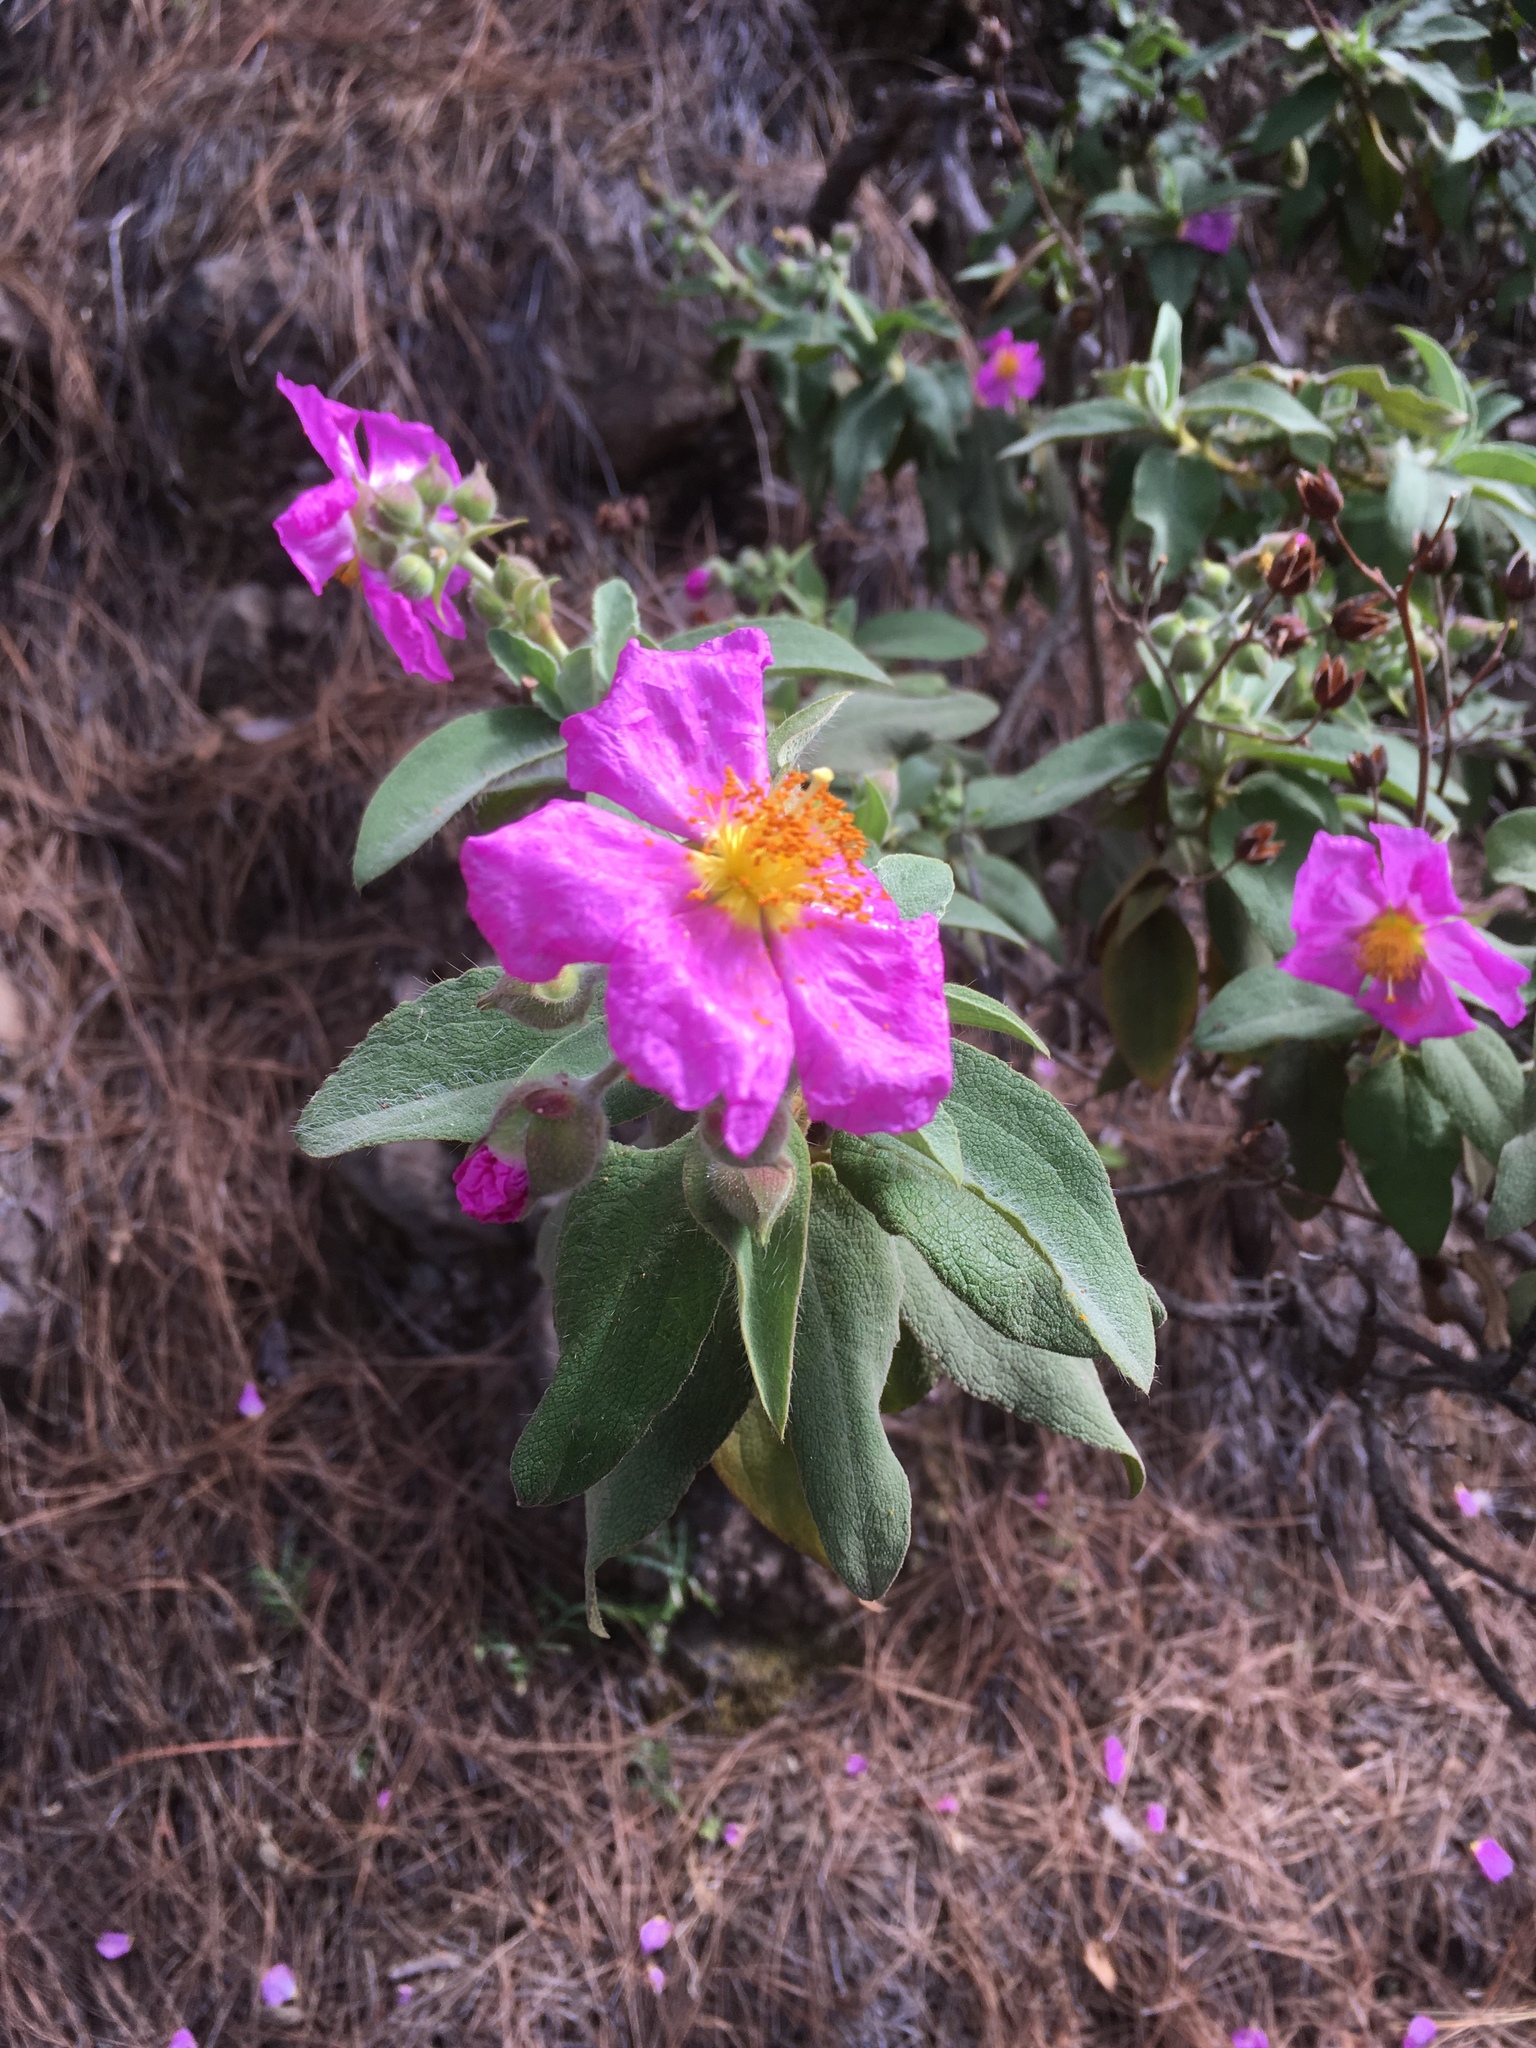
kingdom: Plantae
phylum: Tracheophyta
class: Magnoliopsida
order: Malvales
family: Cistaceae
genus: Cistus
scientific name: Cistus symphytifolius
